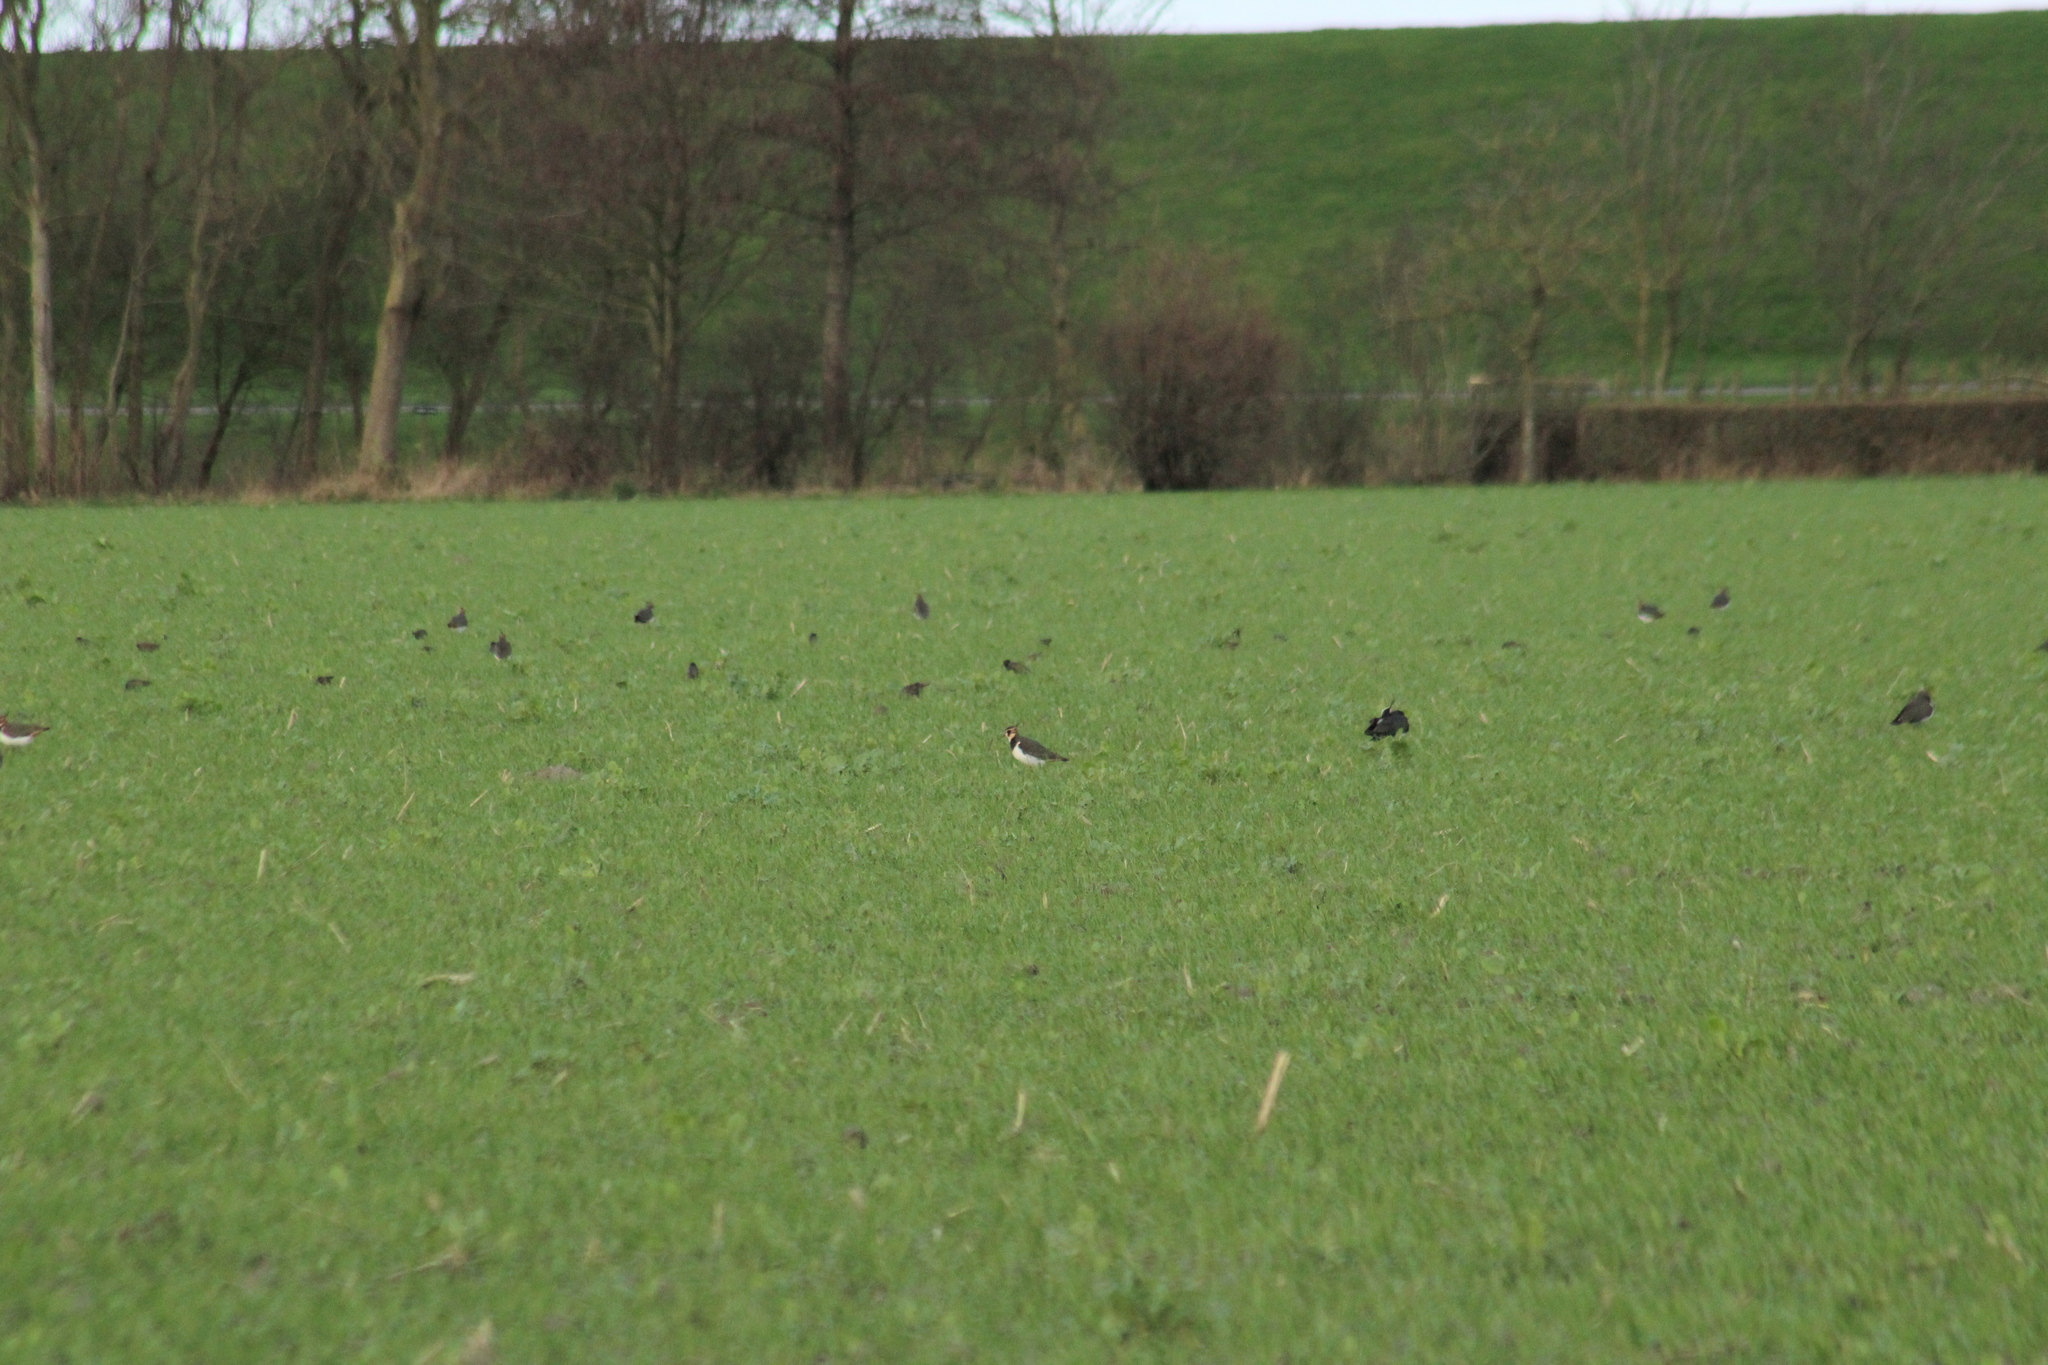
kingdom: Animalia
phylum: Chordata
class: Aves
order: Charadriiformes
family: Charadriidae
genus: Vanellus
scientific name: Vanellus vanellus
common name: Northern lapwing
